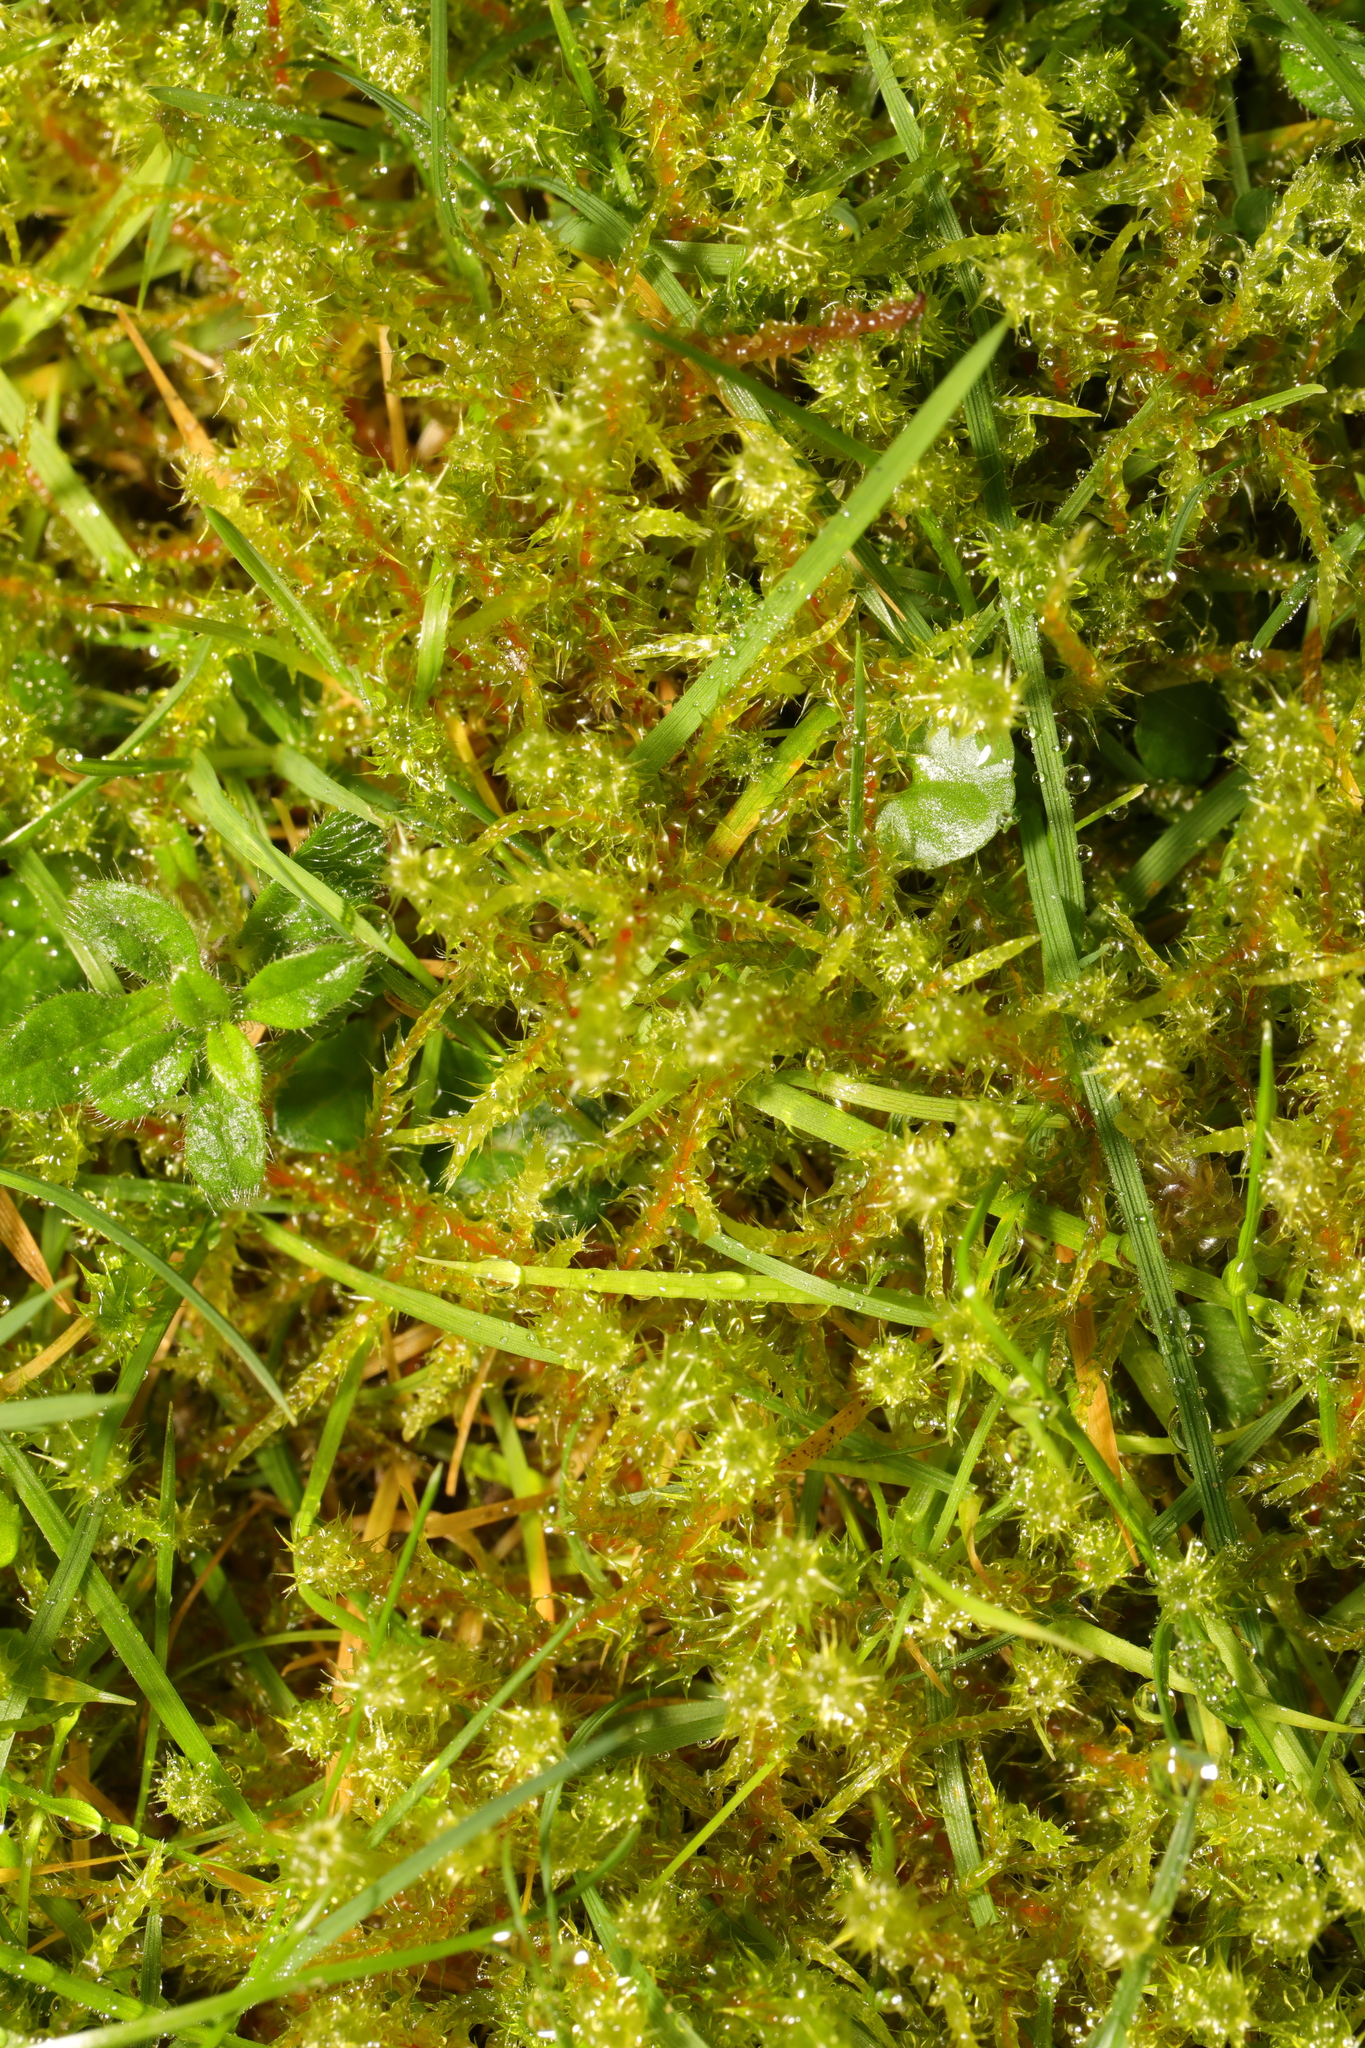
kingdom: Plantae
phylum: Bryophyta
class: Bryopsida
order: Hypnales
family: Hylocomiaceae
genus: Rhytidiadelphus
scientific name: Rhytidiadelphus squarrosus
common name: Springy turf-moss
